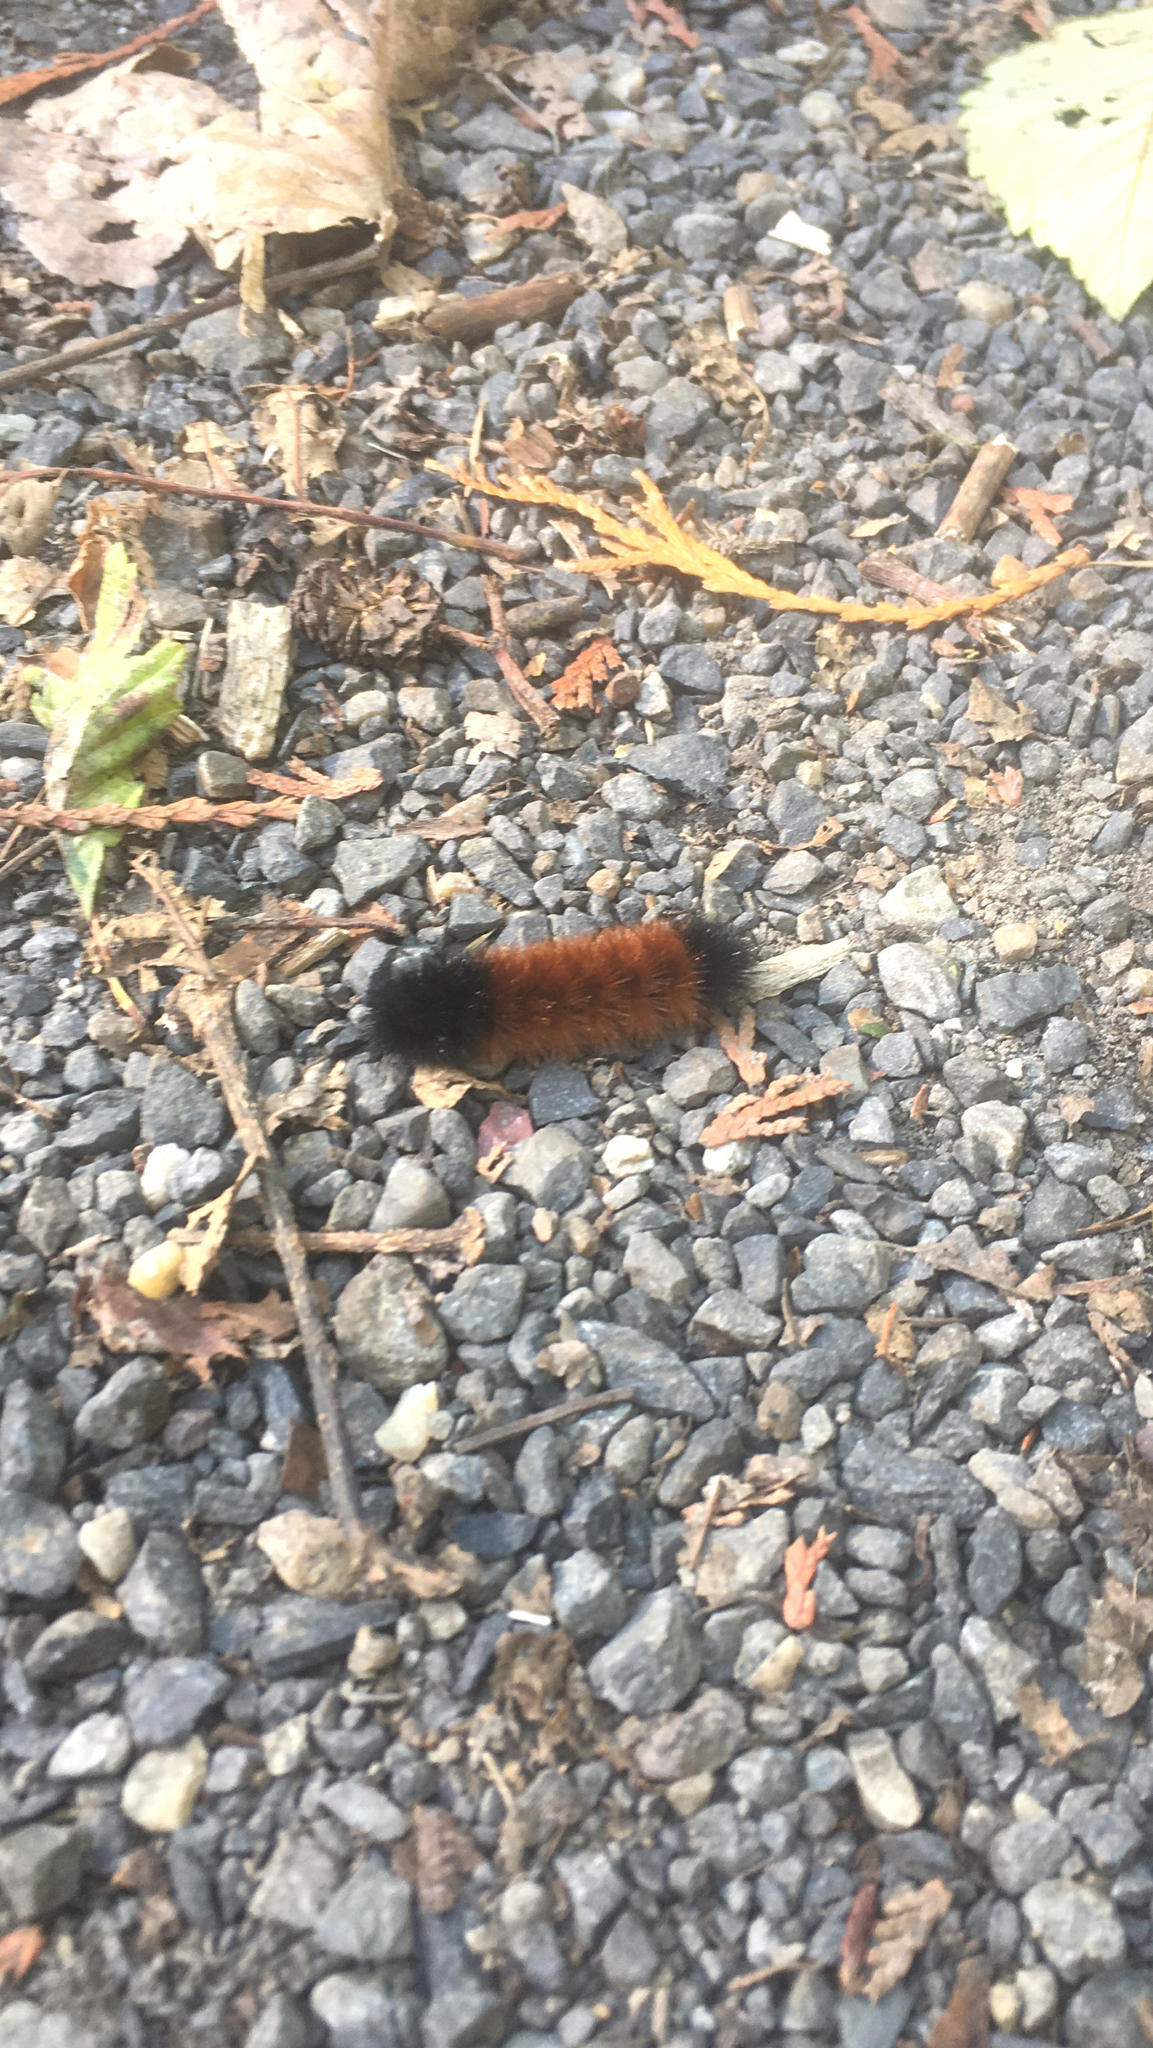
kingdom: Animalia
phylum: Arthropoda
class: Insecta
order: Lepidoptera
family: Erebidae
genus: Pyrrharctia
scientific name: Pyrrharctia isabella
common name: Isabella tiger moth
